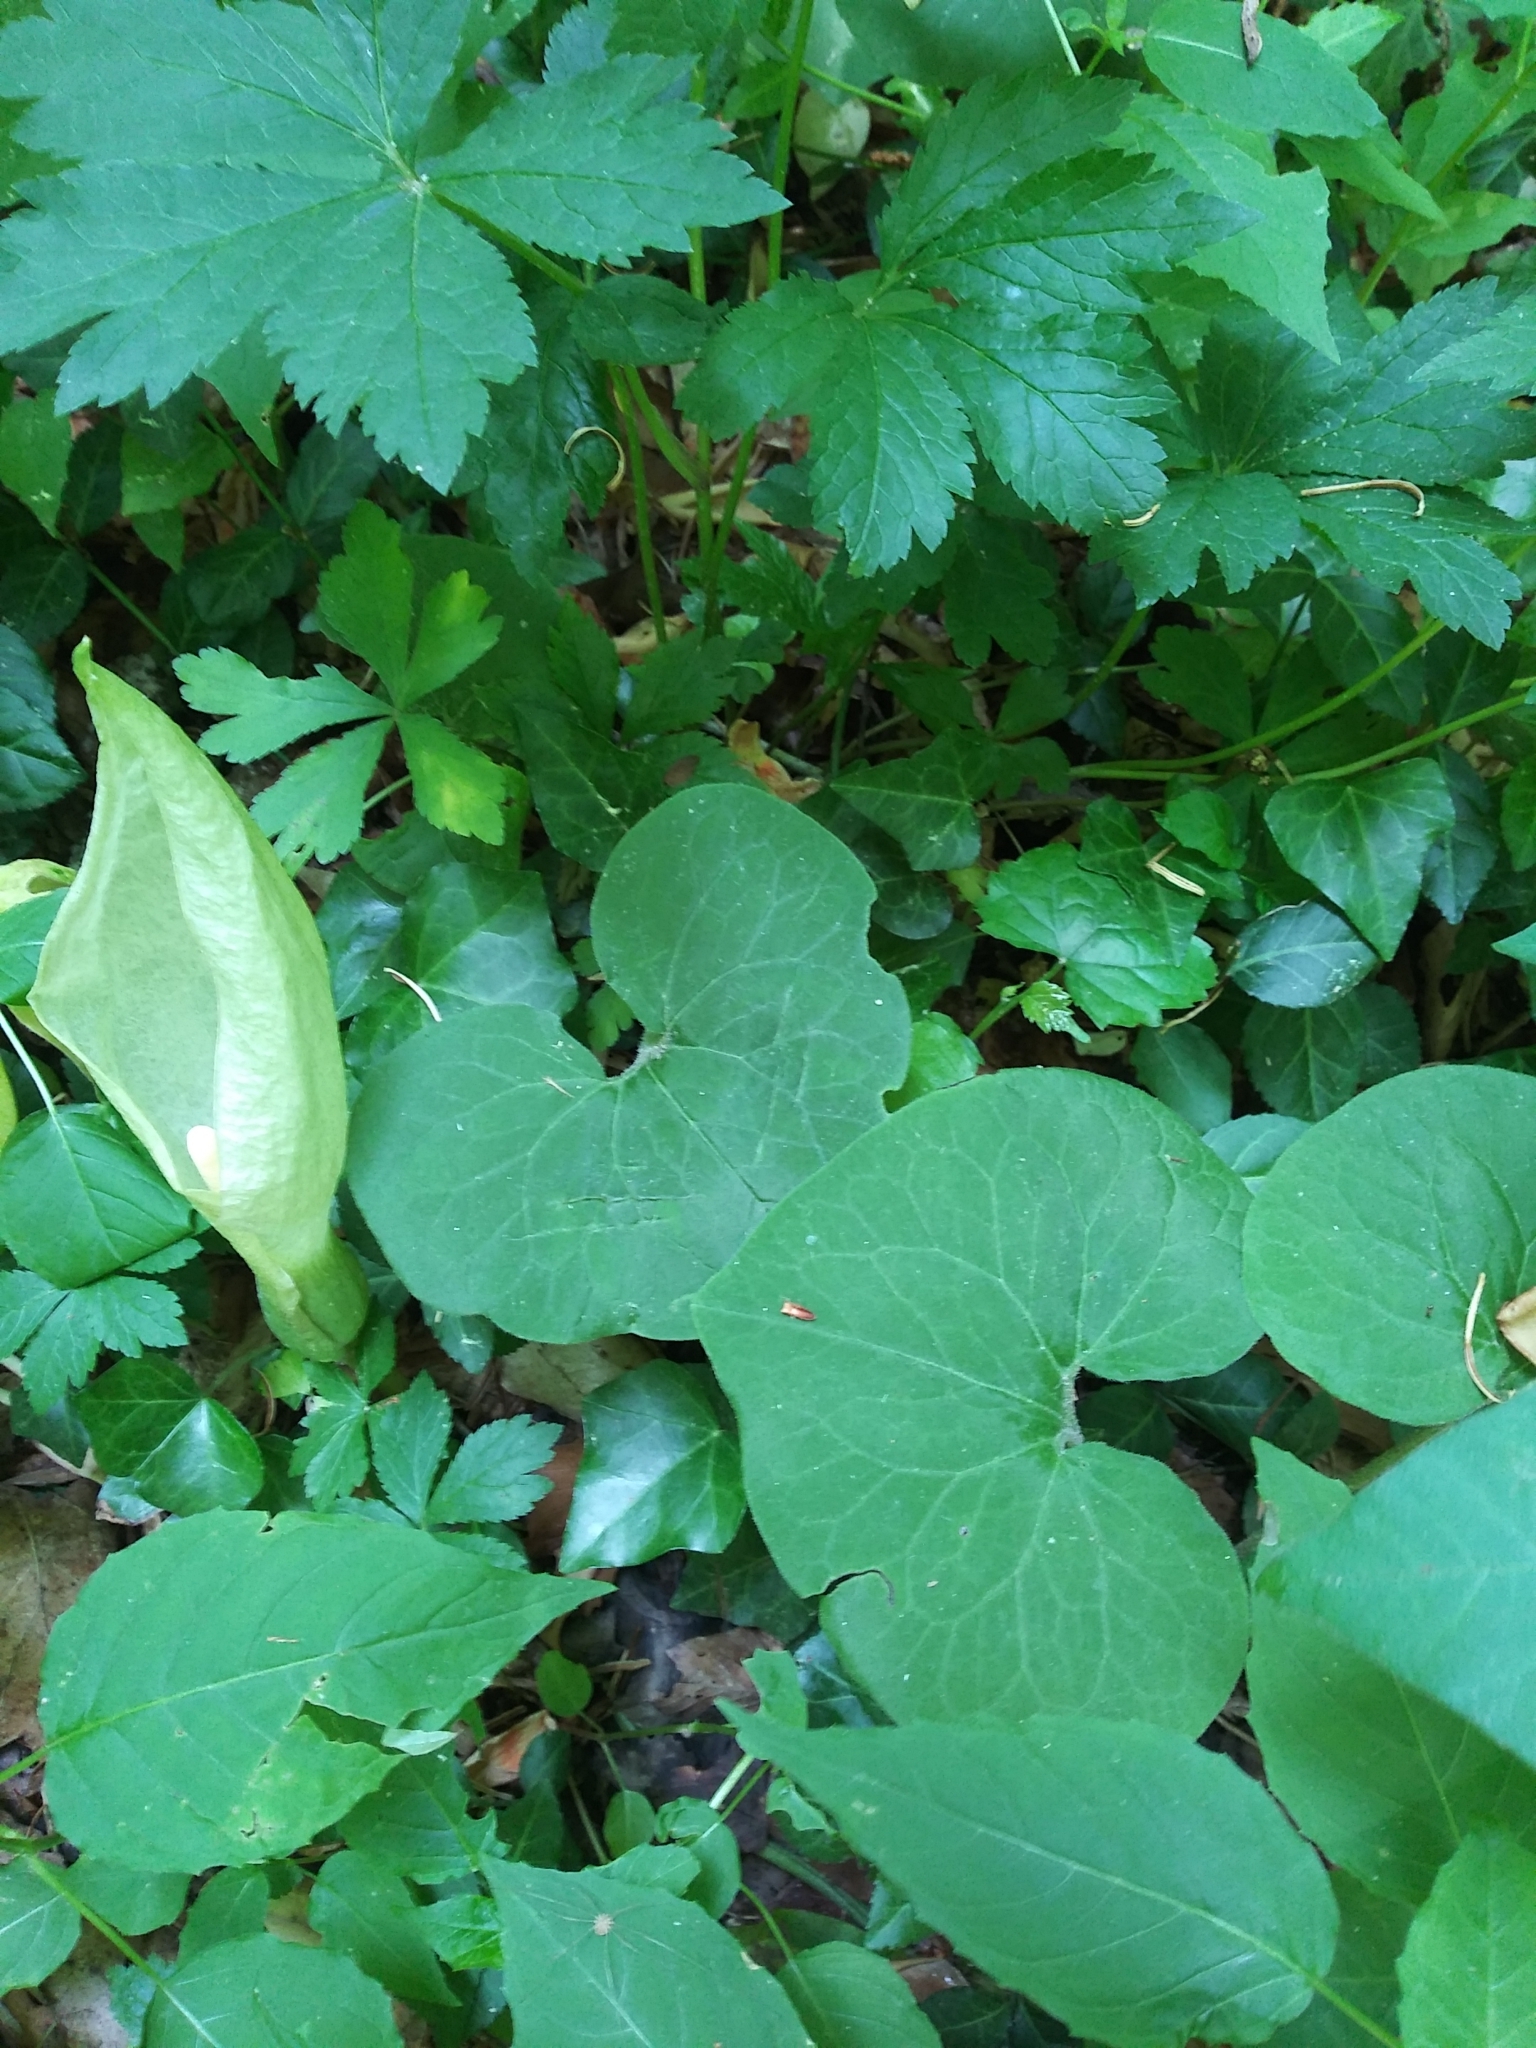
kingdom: Plantae
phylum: Tracheophyta
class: Magnoliopsida
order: Piperales
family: Aristolochiaceae
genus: Asarum
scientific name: Asarum canadense
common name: Wild ginger
